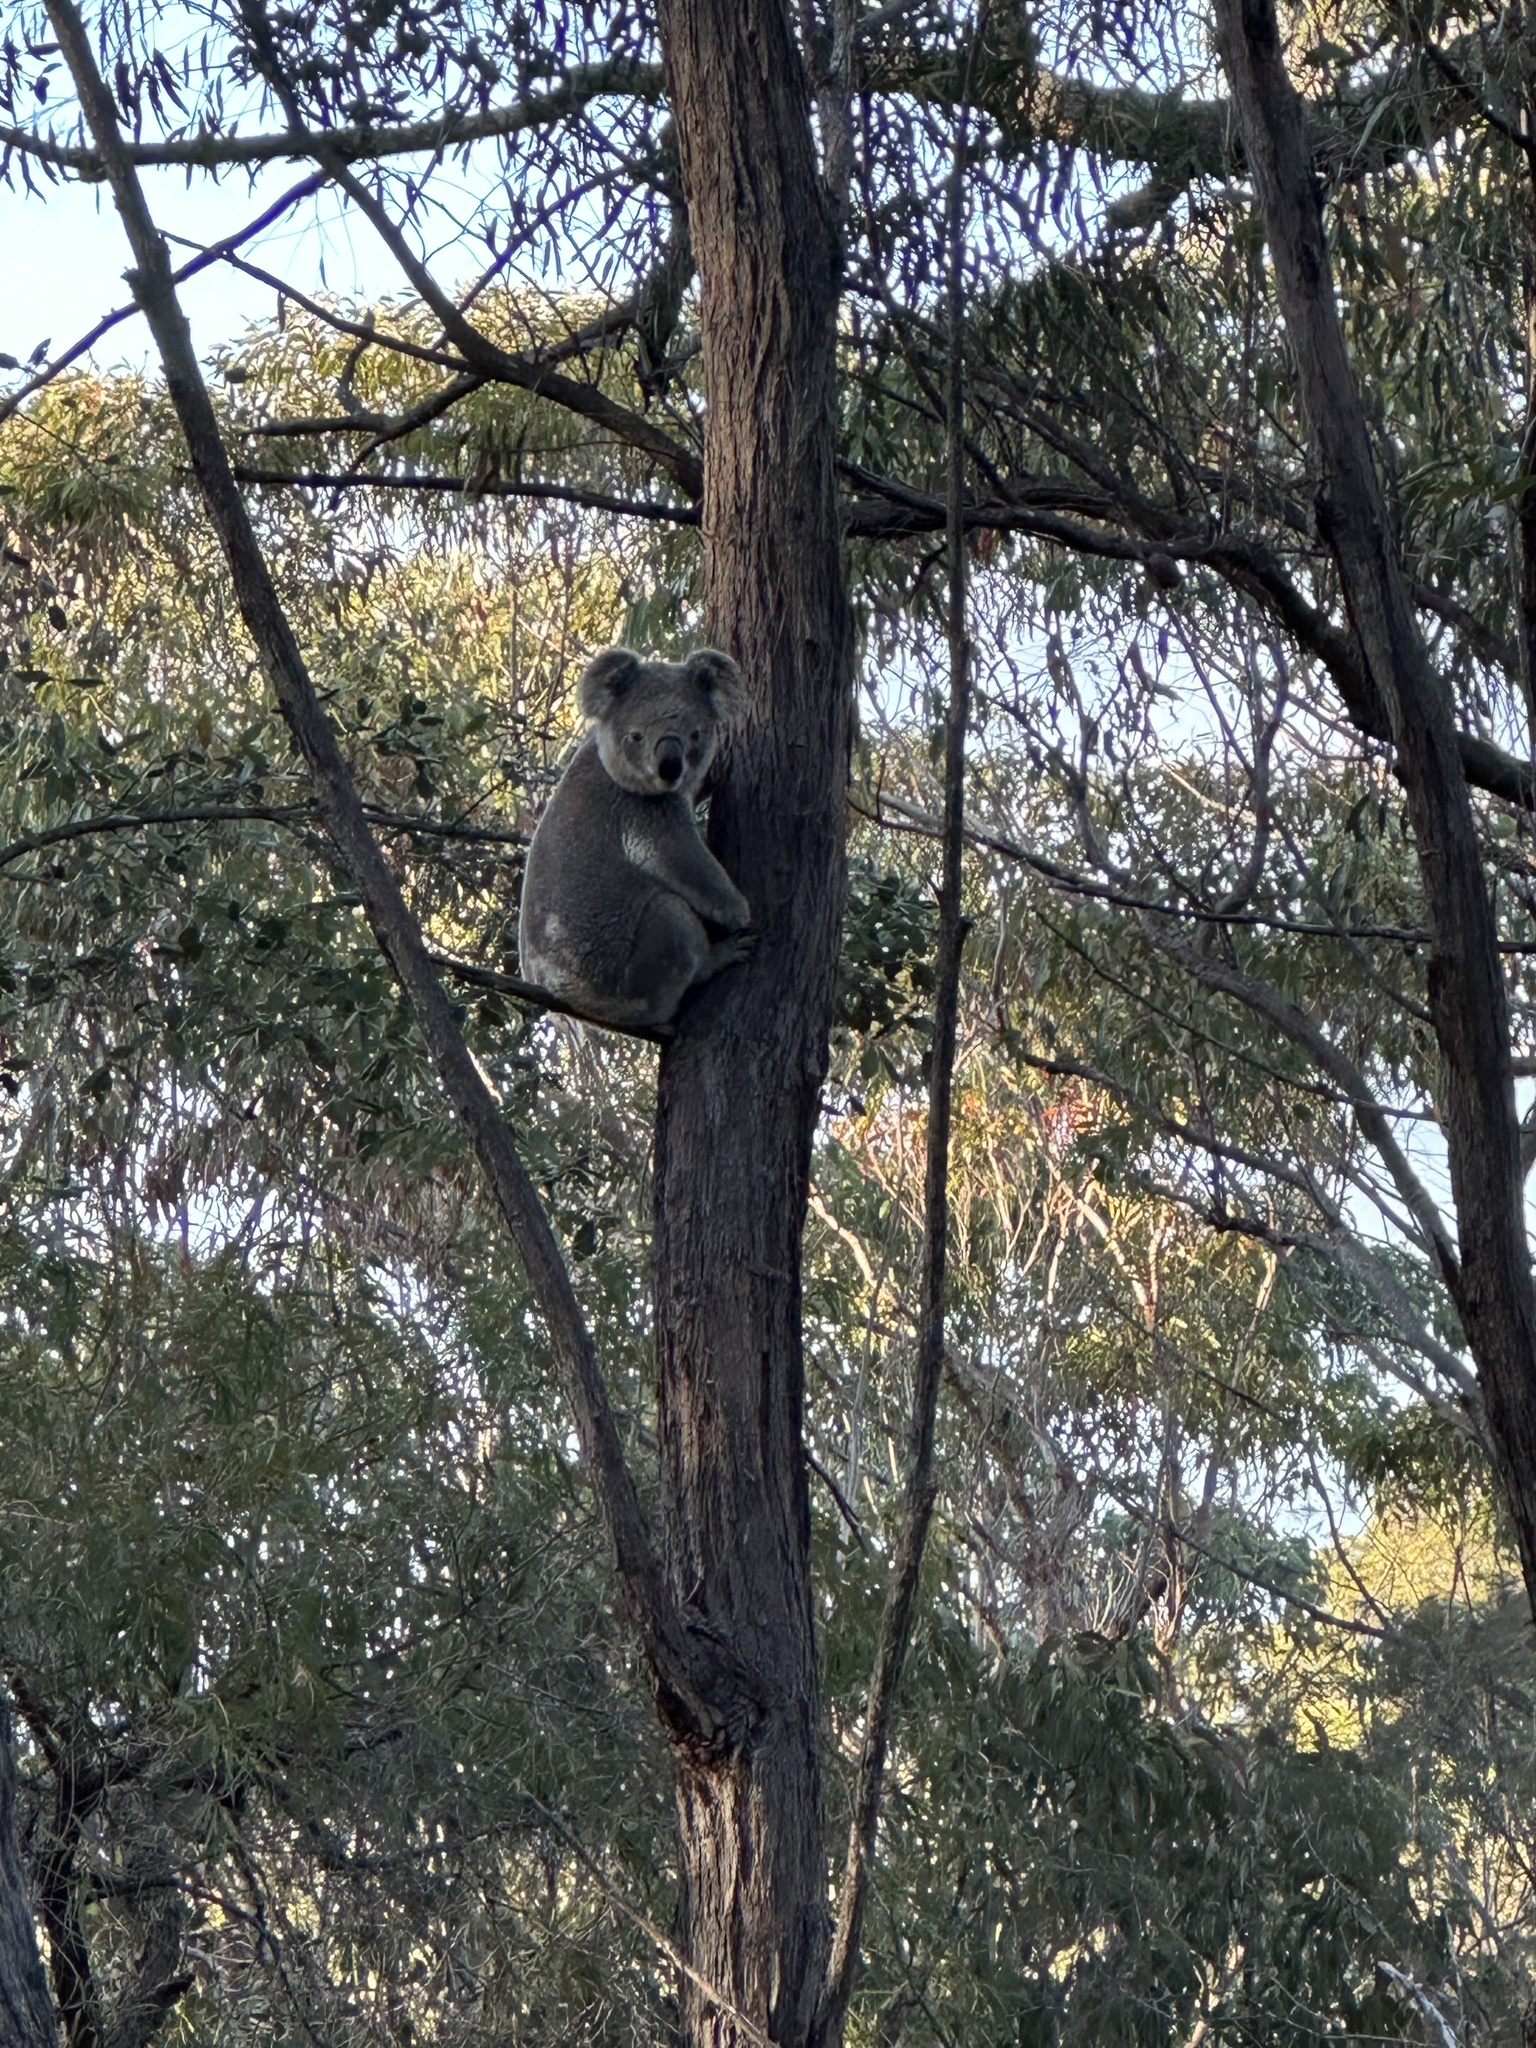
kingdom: Animalia
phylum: Chordata
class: Mammalia
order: Diprotodontia
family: Phascolarctidae
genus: Phascolarctos
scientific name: Phascolarctos cinereus
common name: Koala
